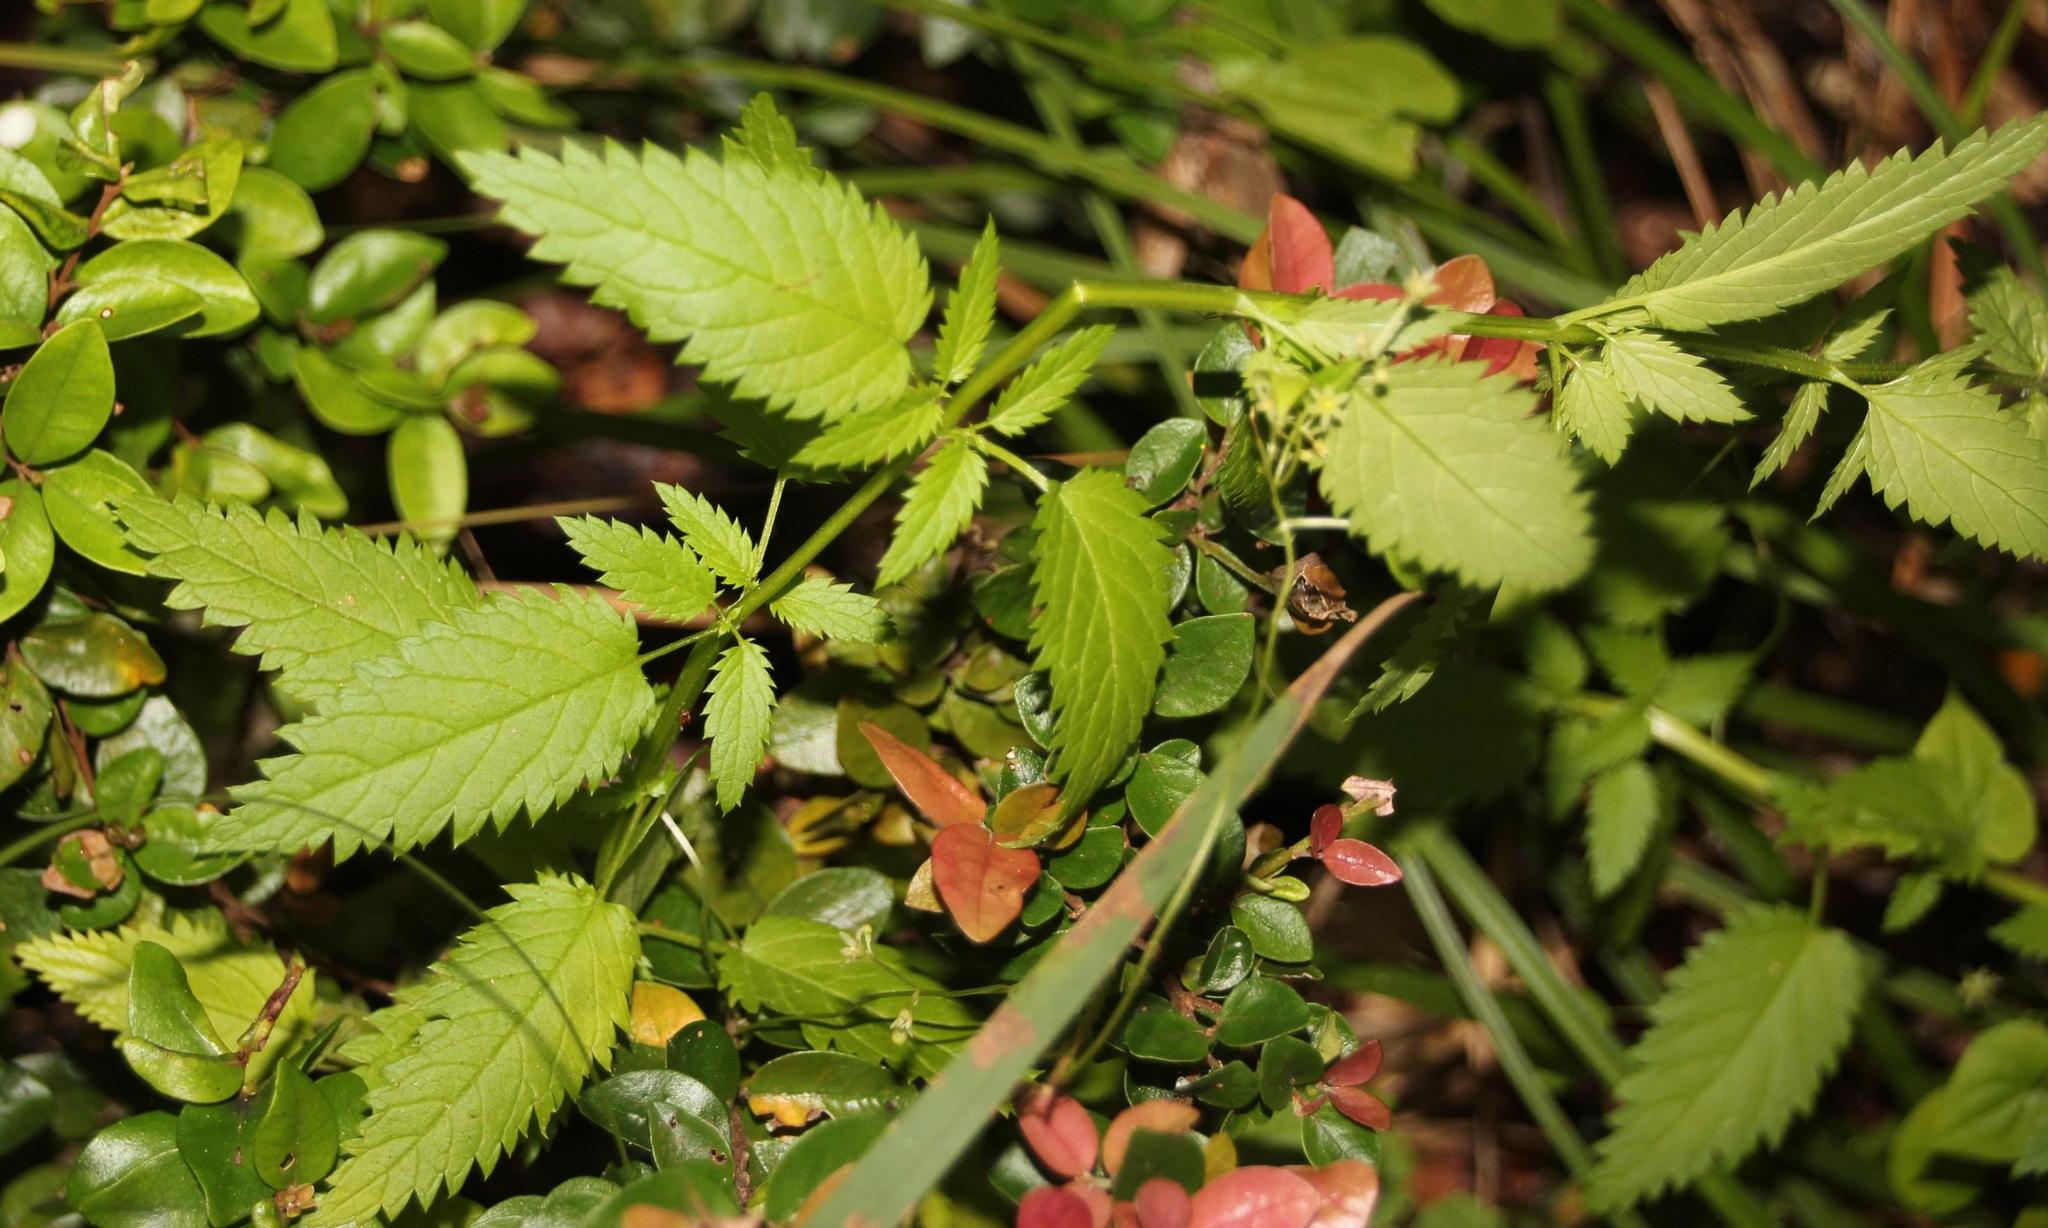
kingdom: Plantae
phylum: Tracheophyta
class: Magnoliopsida
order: Lamiales
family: Scrophulariaceae
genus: Alonsoa
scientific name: Alonsoa meridionalis
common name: Maskflower
